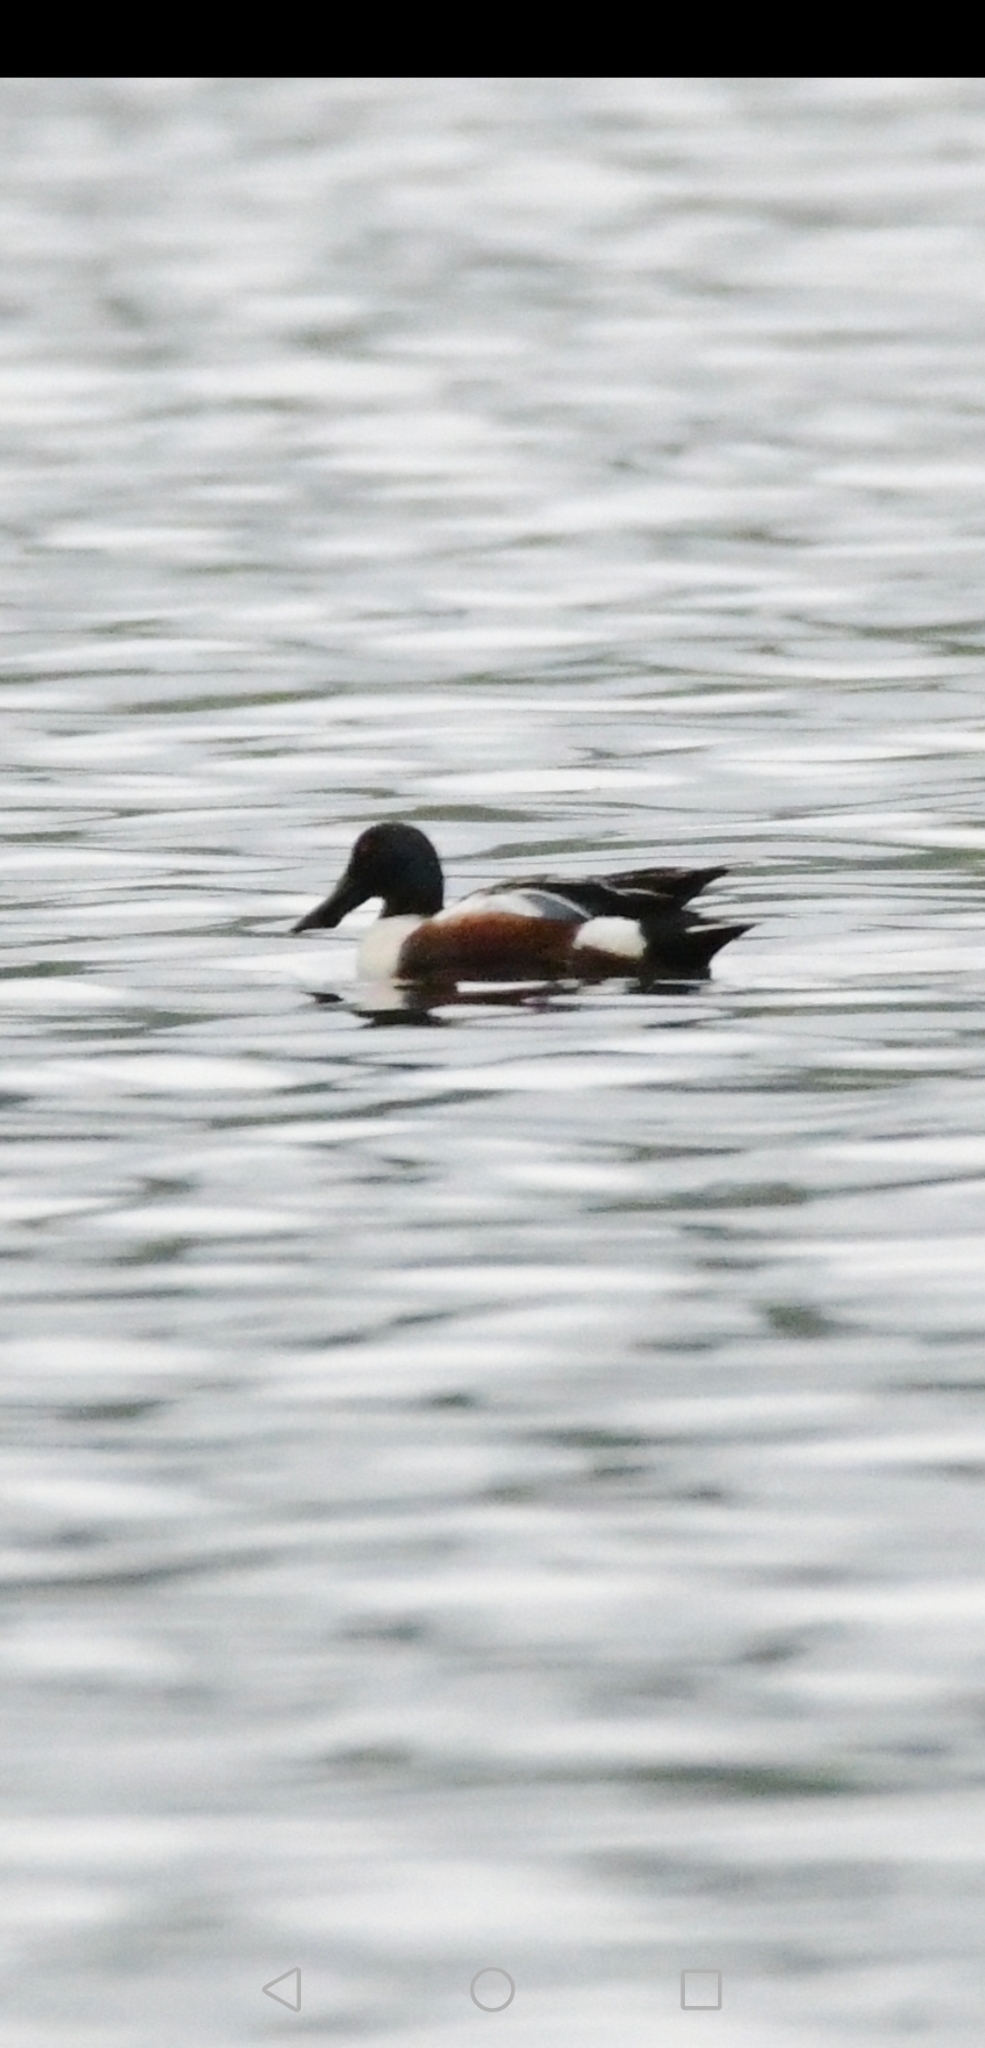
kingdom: Animalia
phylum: Chordata
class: Aves
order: Anseriformes
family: Anatidae
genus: Spatula
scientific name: Spatula clypeata
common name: Northern shoveler
